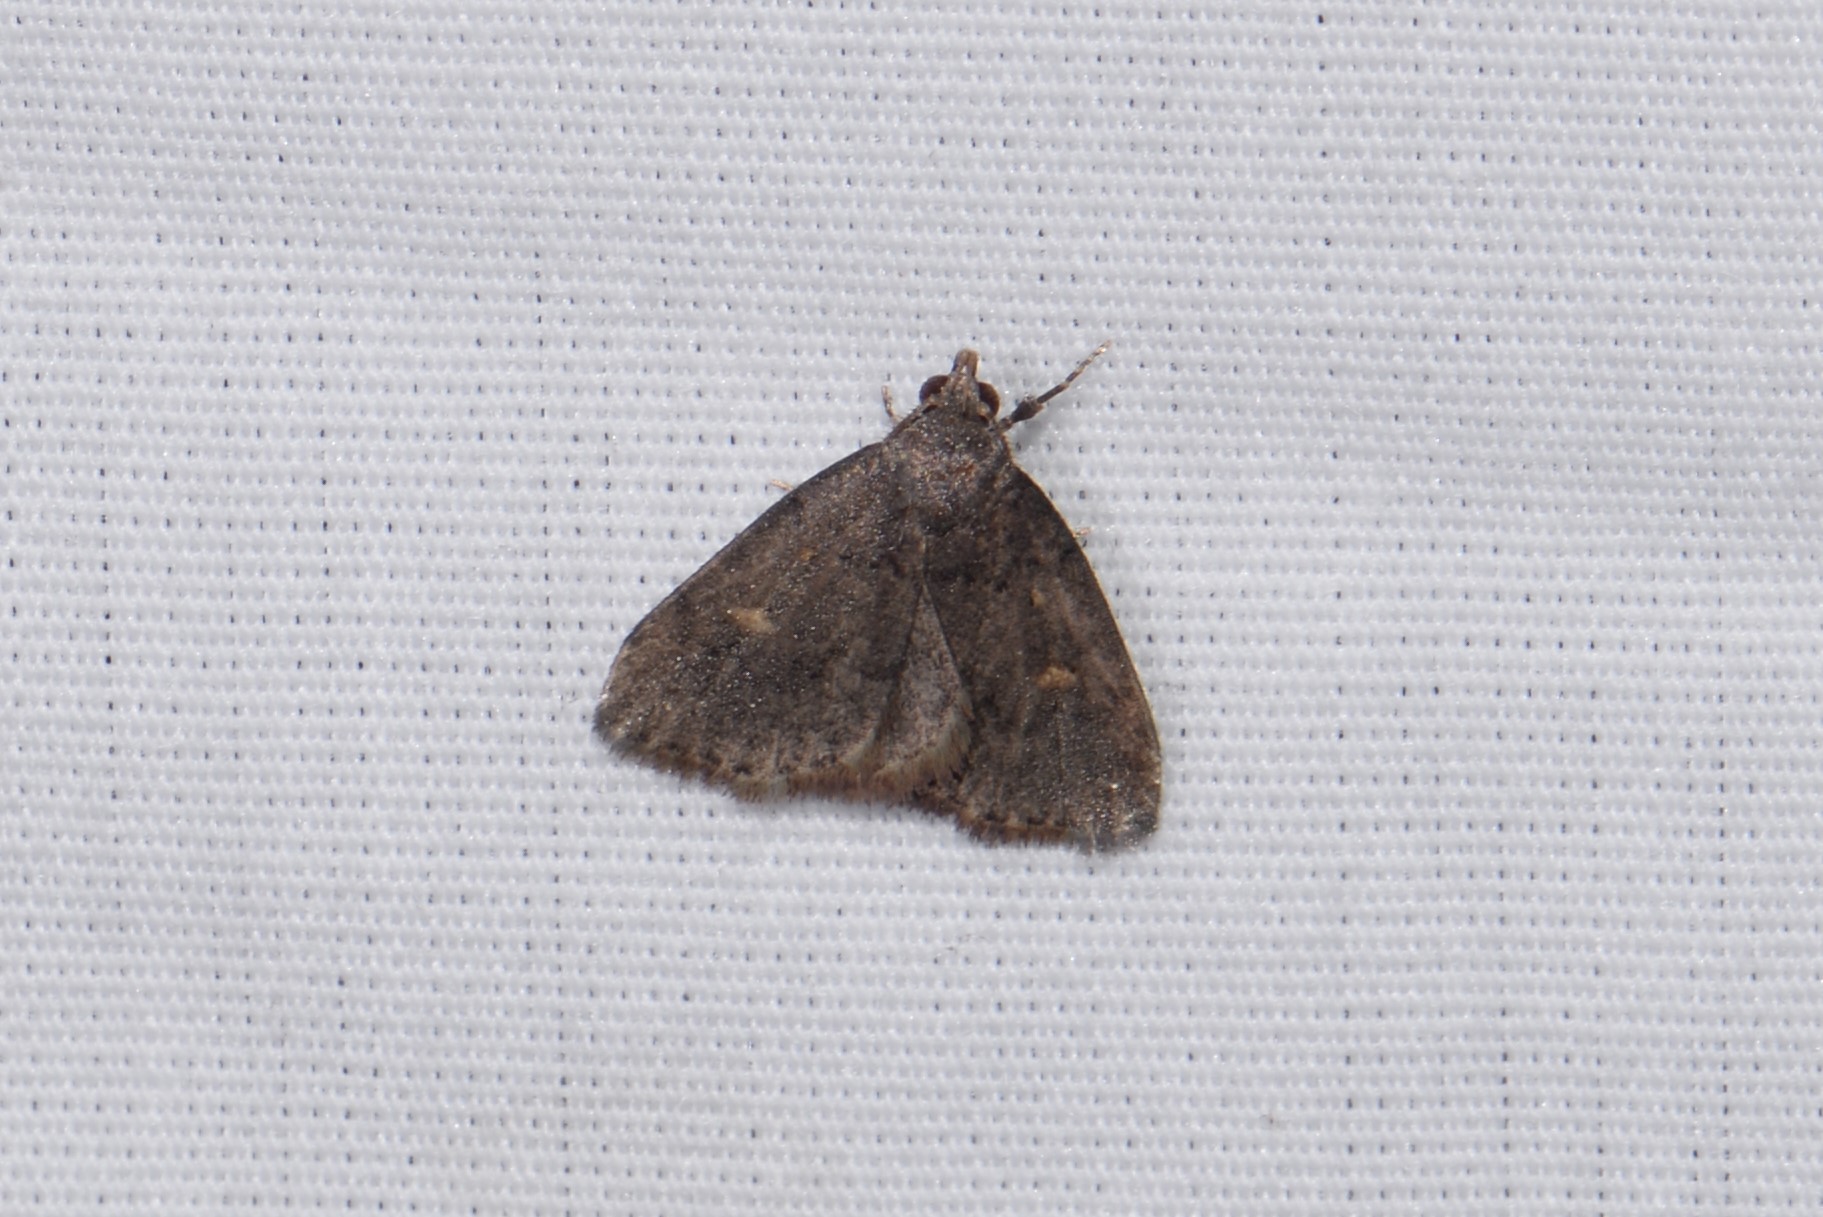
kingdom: Animalia
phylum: Arthropoda
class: Insecta
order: Lepidoptera
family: Erebidae
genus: Idia
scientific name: Idia diminuendis
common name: Orange-spotted idia moth
